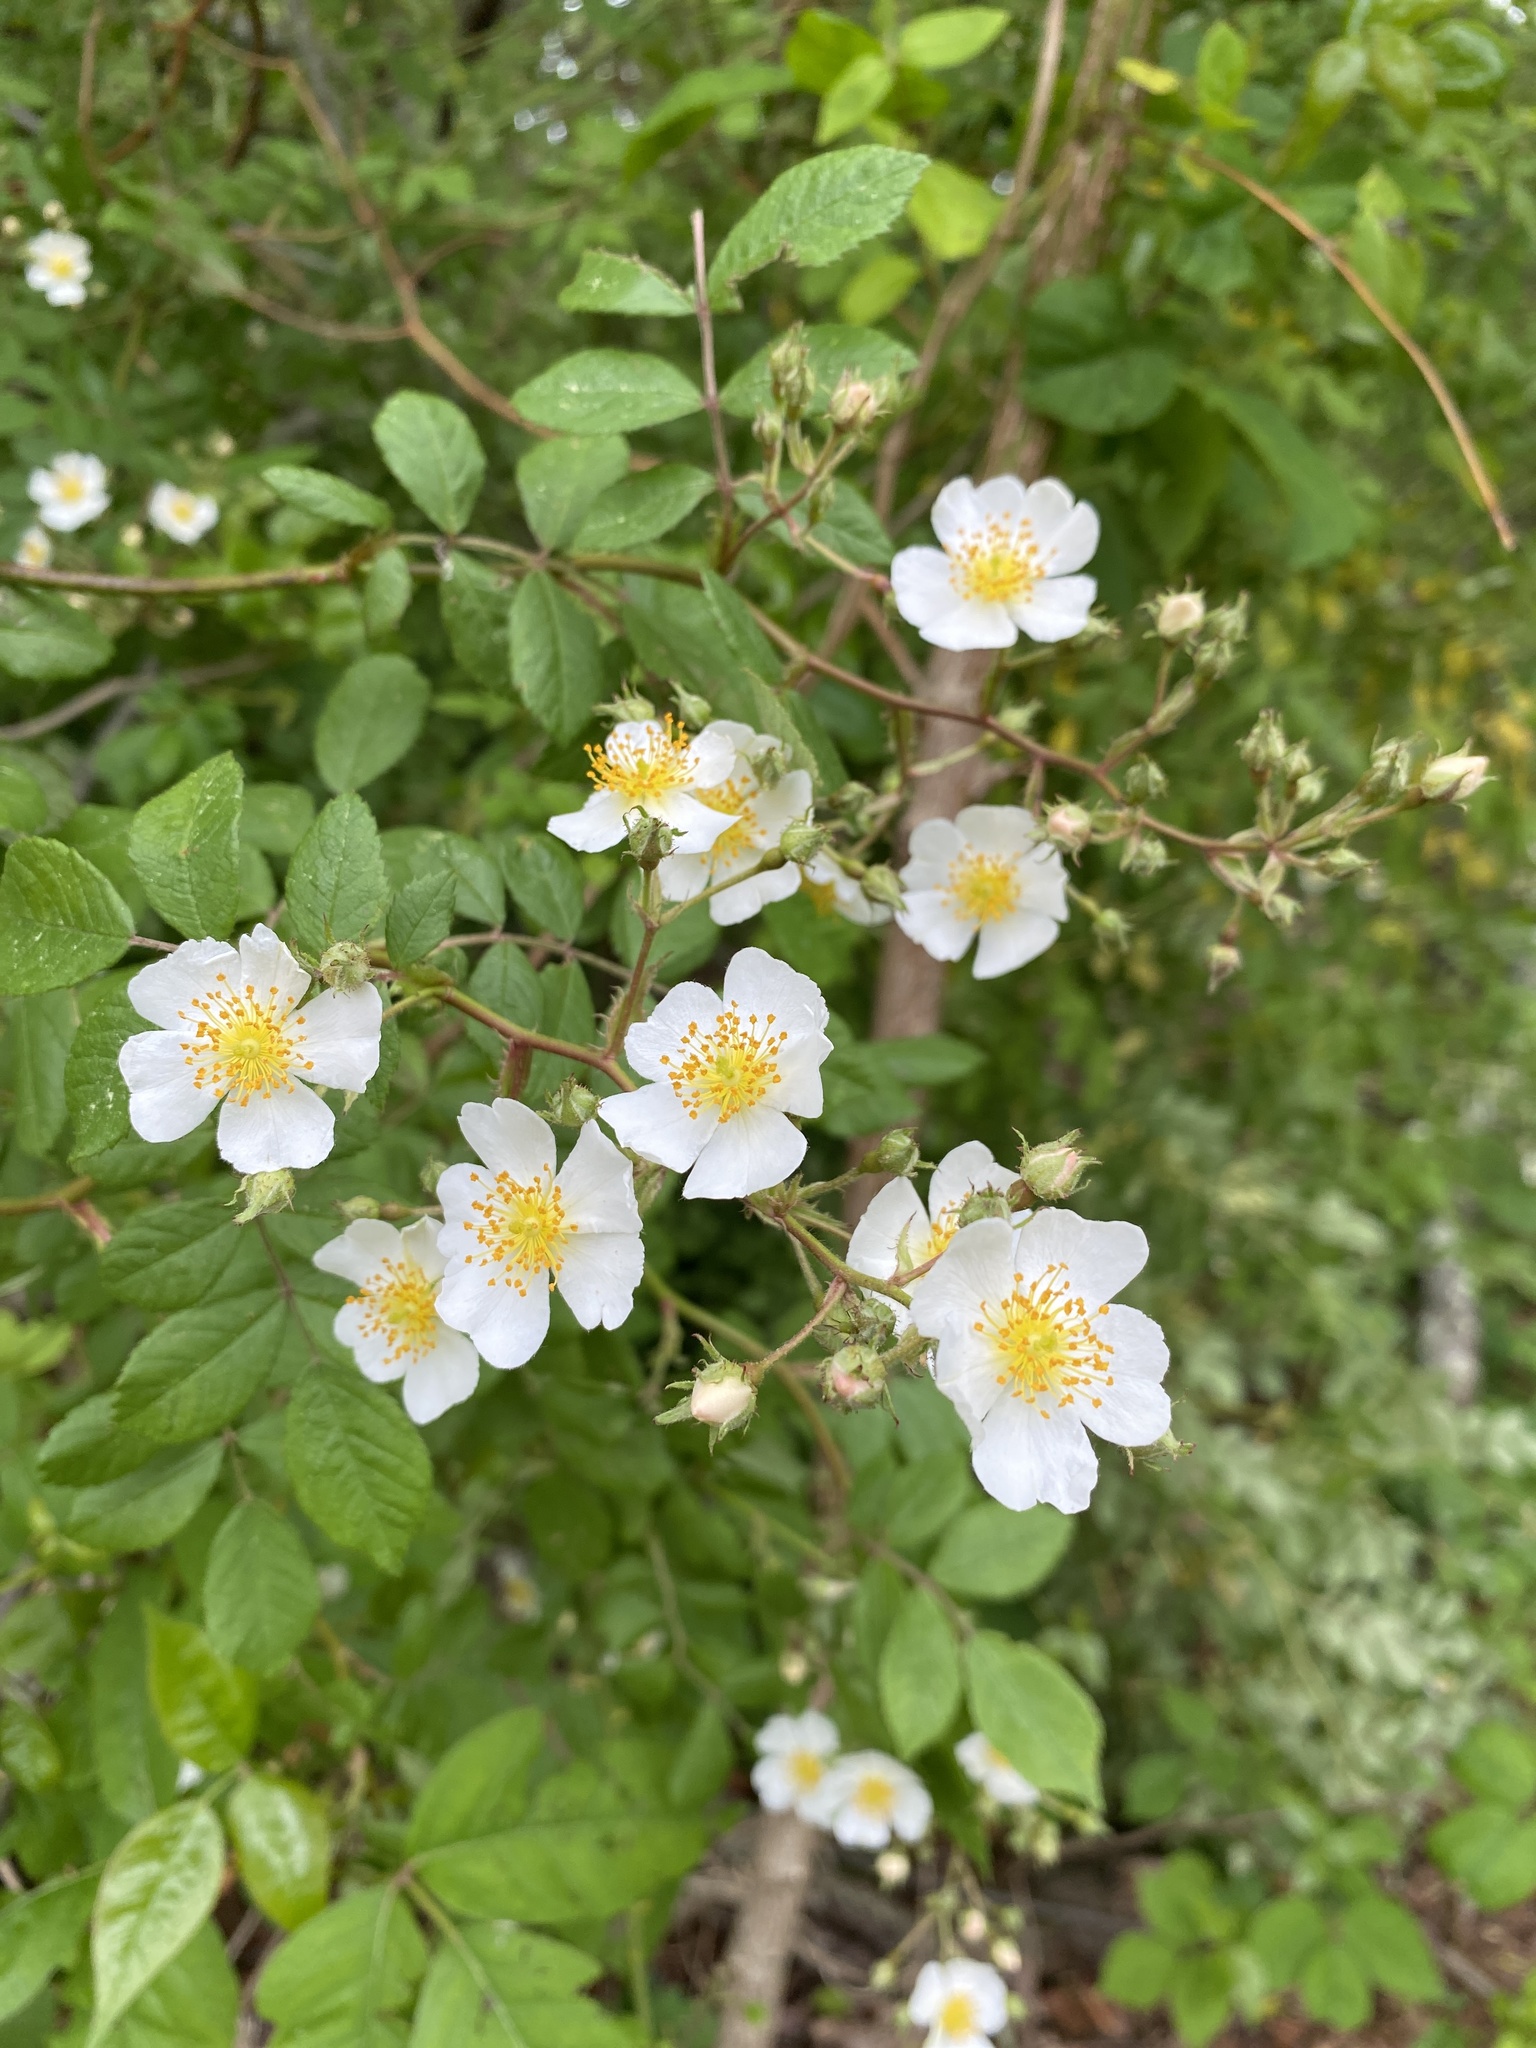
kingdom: Plantae
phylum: Tracheophyta
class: Magnoliopsida
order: Rosales
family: Rosaceae
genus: Rosa
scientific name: Rosa multiflora
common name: Multiflora rose
